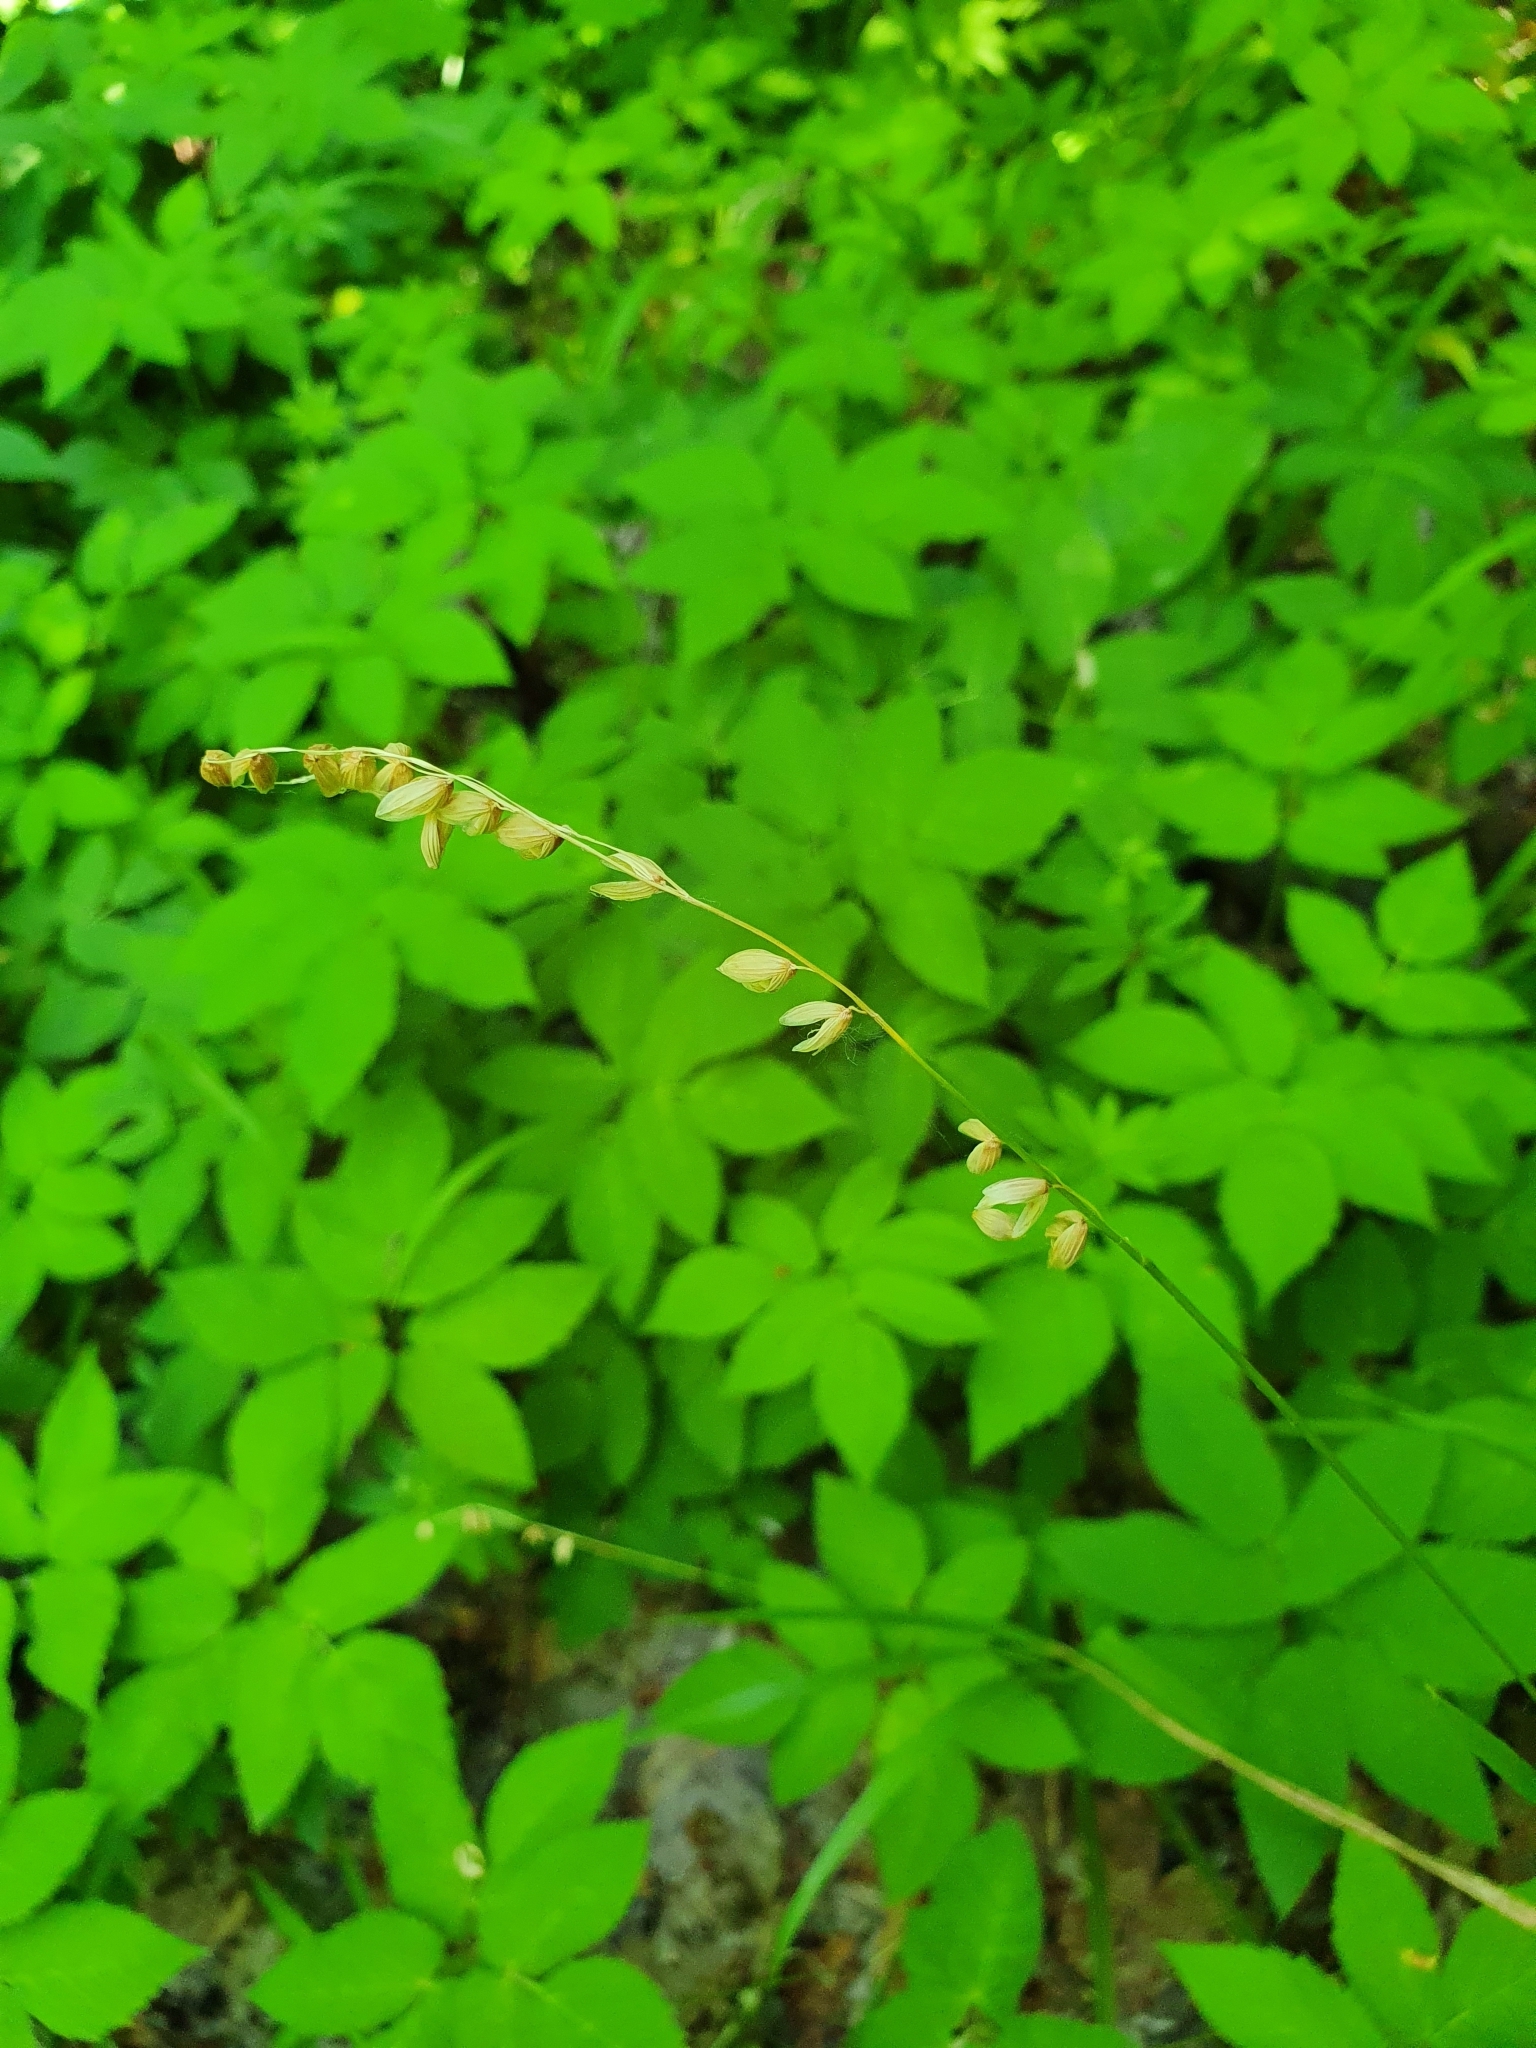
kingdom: Plantae
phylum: Tracheophyta
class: Liliopsida
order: Poales
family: Poaceae
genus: Melica
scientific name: Melica nutans
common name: Mountain melick
